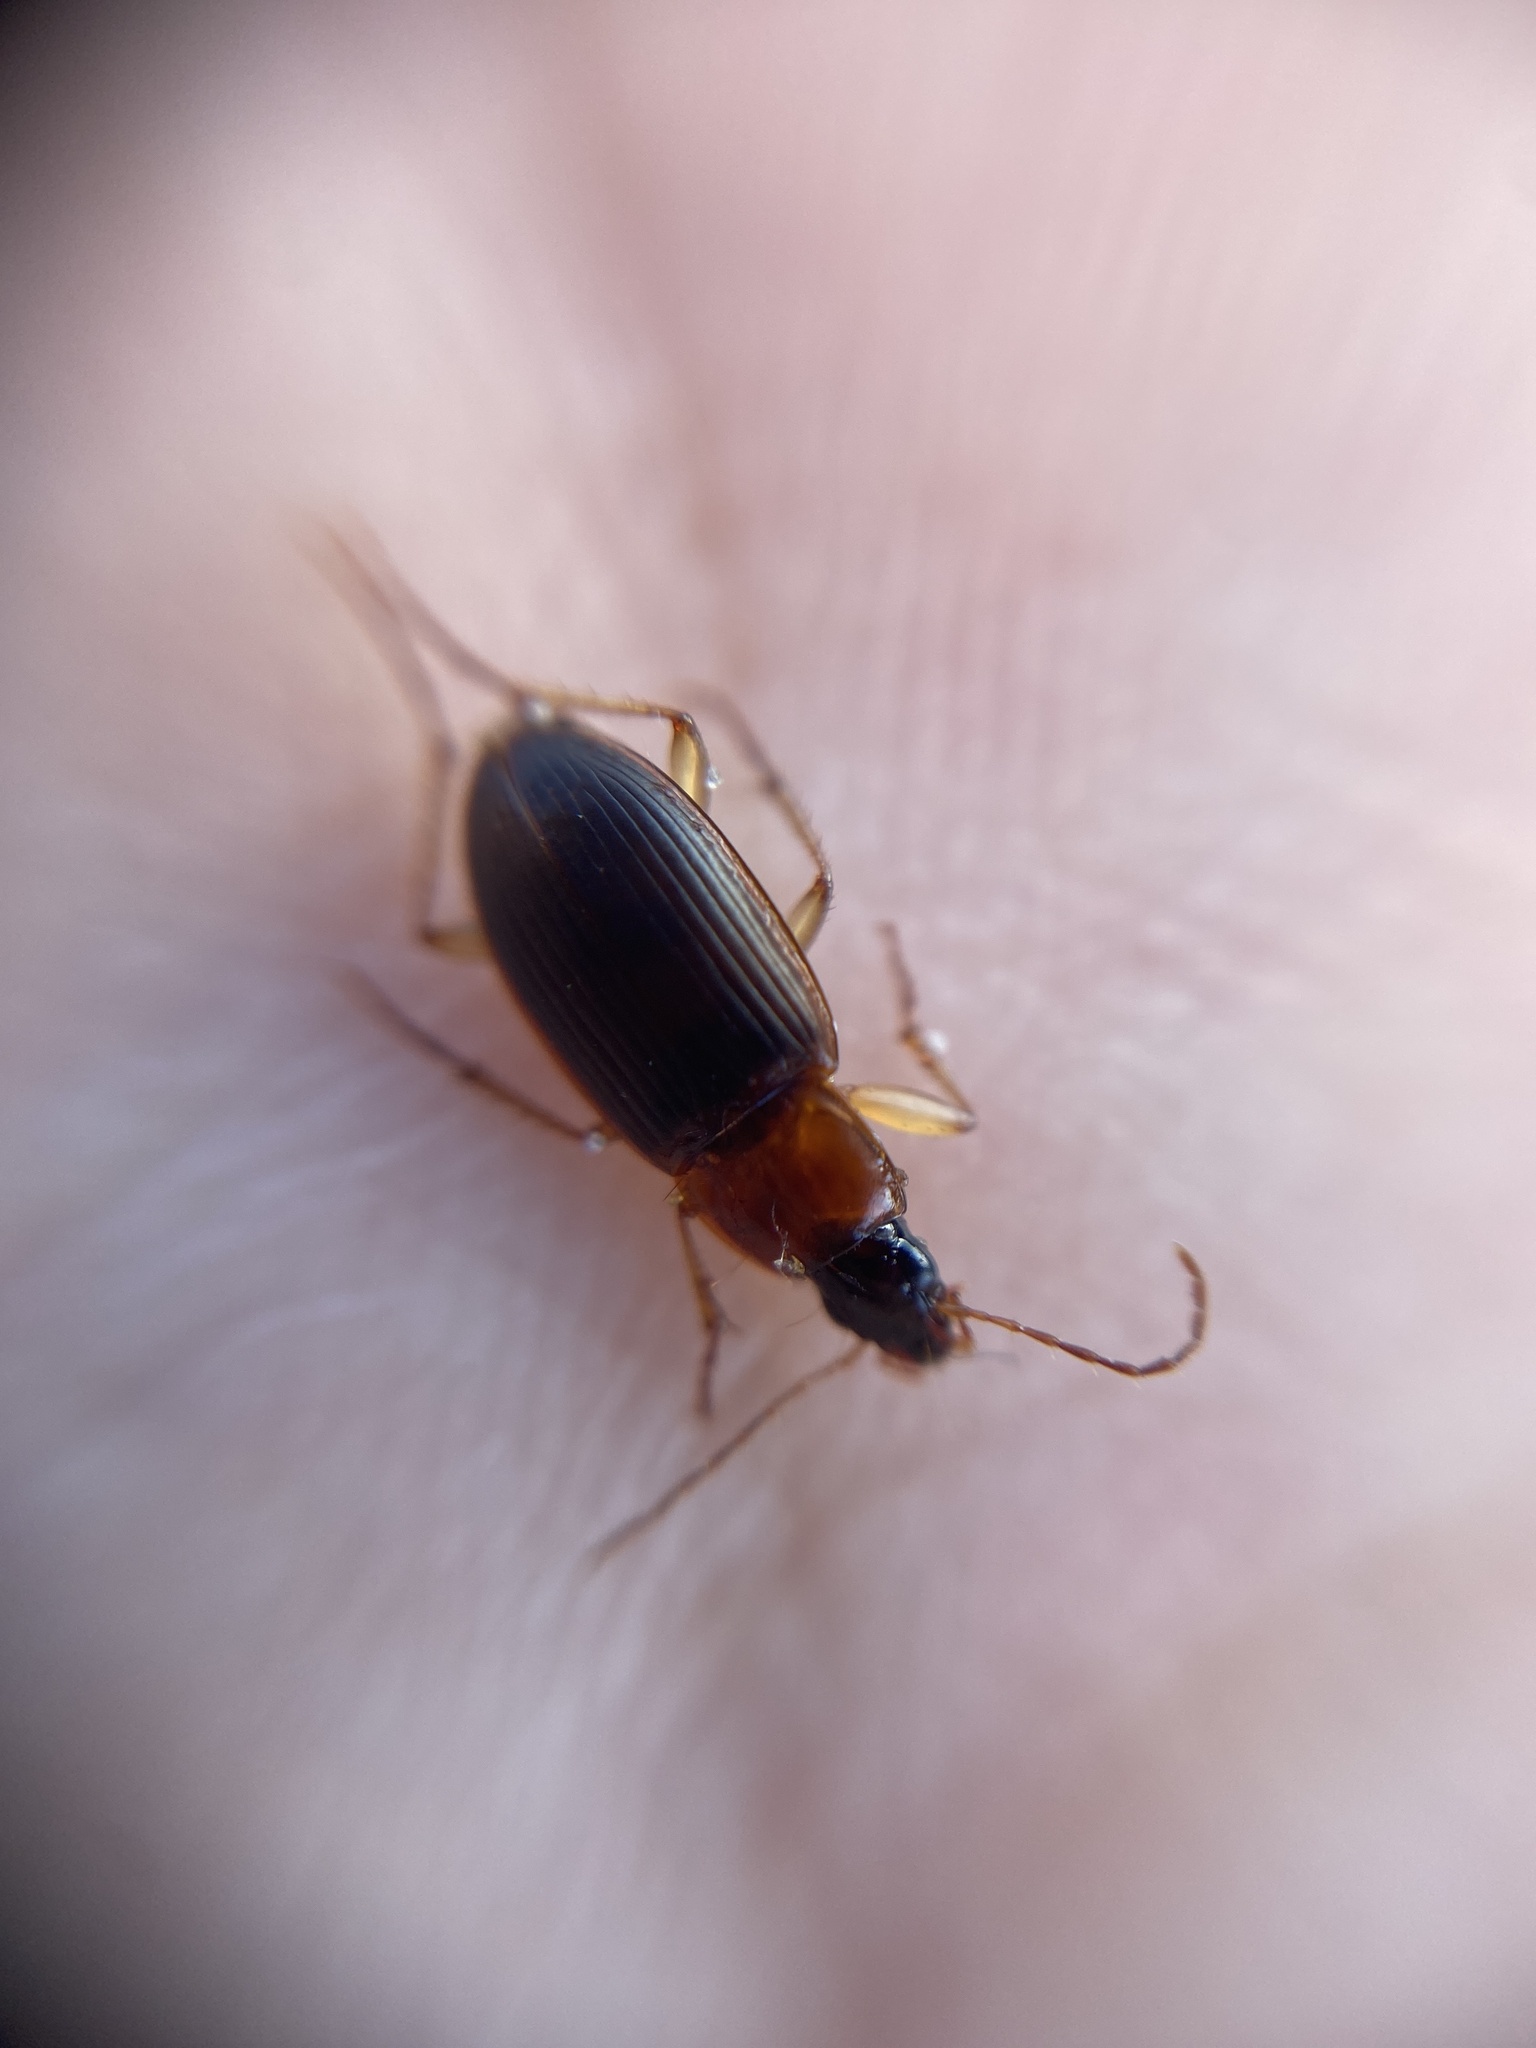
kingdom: Animalia
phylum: Arthropoda
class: Insecta
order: Coleoptera
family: Carabidae
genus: Calathus
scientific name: Calathus melanocephalus
